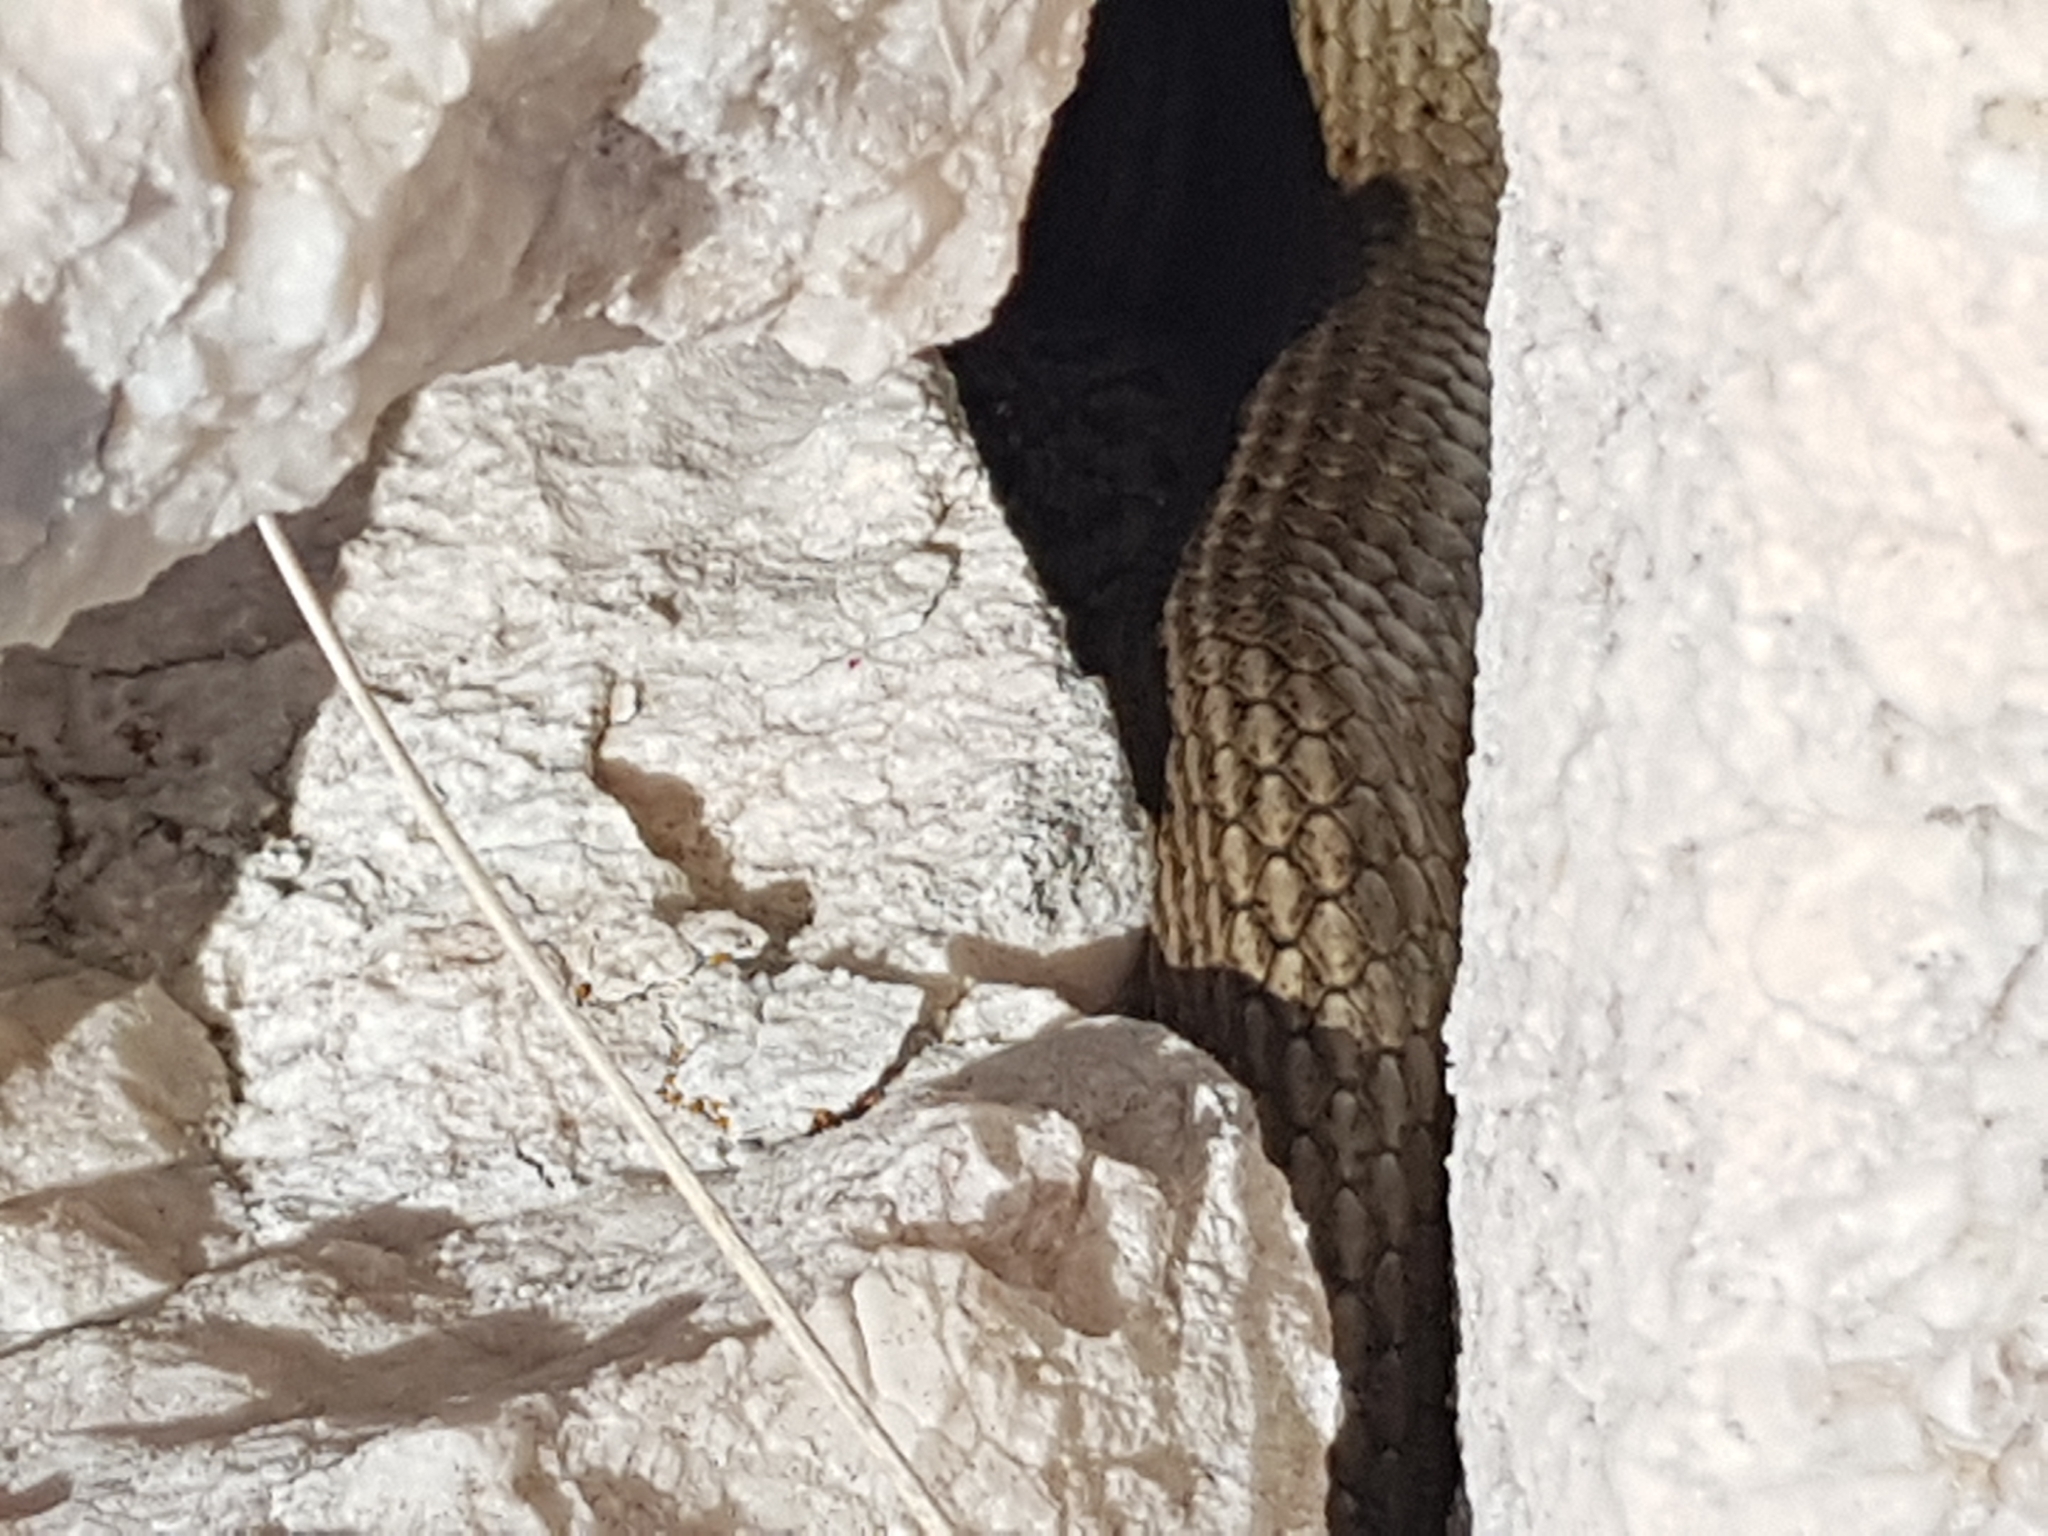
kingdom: Animalia
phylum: Chordata
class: Squamata
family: Colubridae
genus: Hierophis
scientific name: Hierophis gemonensis
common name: Balkan whip snake
